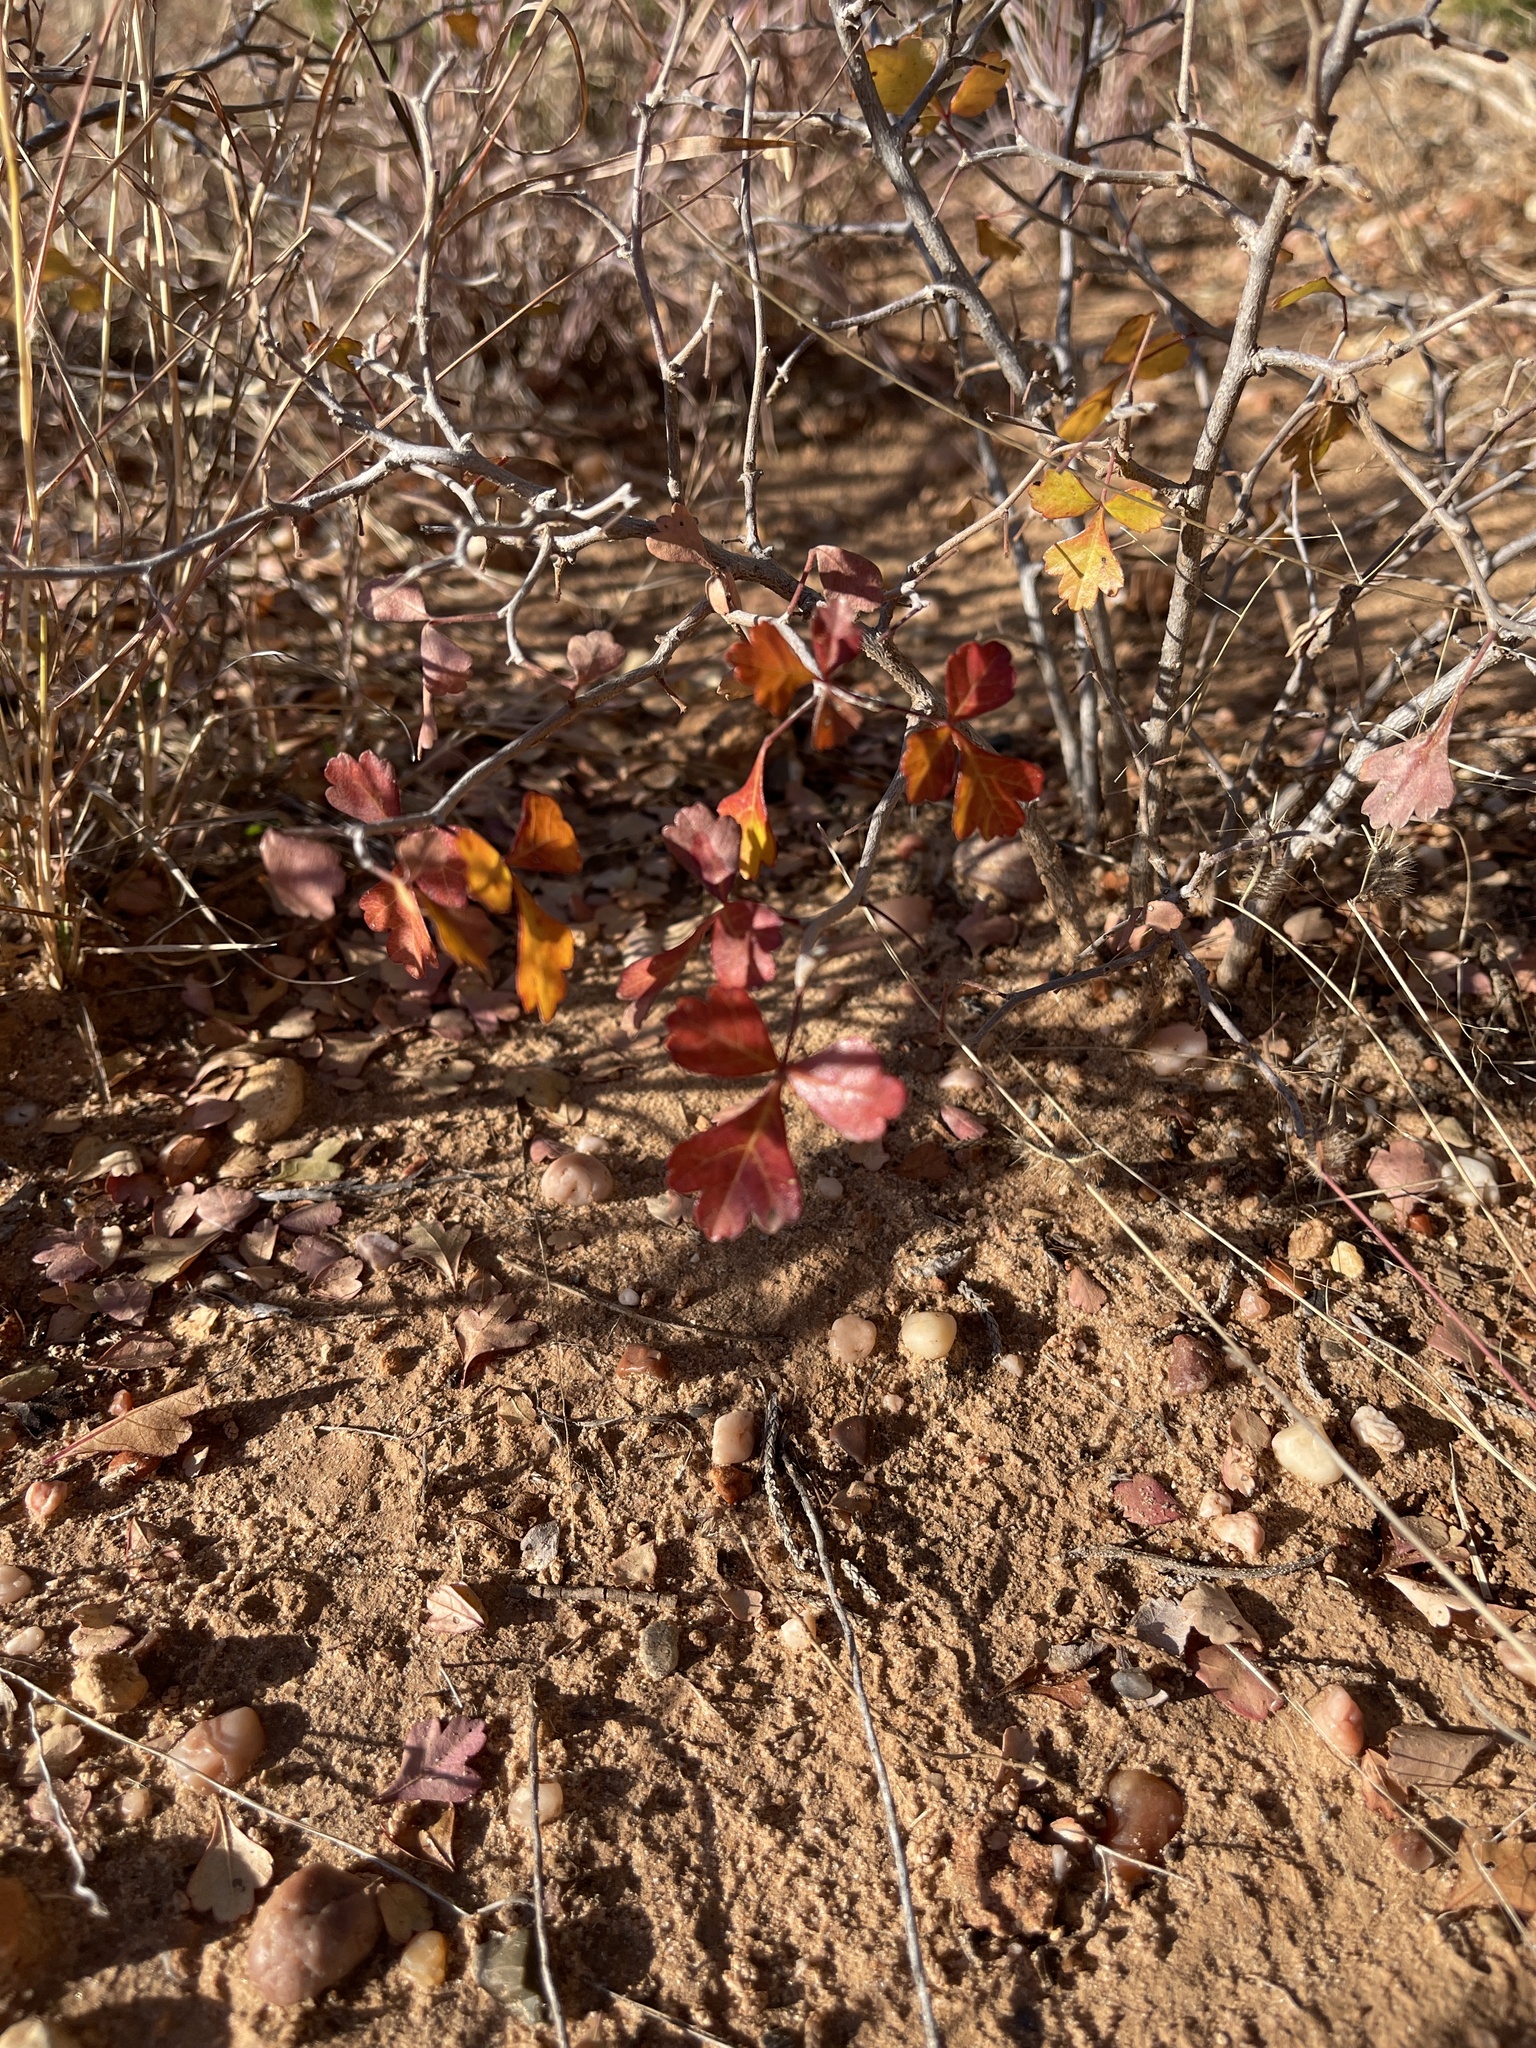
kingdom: Plantae
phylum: Tracheophyta
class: Magnoliopsida
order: Sapindales
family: Anacardiaceae
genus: Rhus
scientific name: Rhus aromatica
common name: Aromatic sumac
